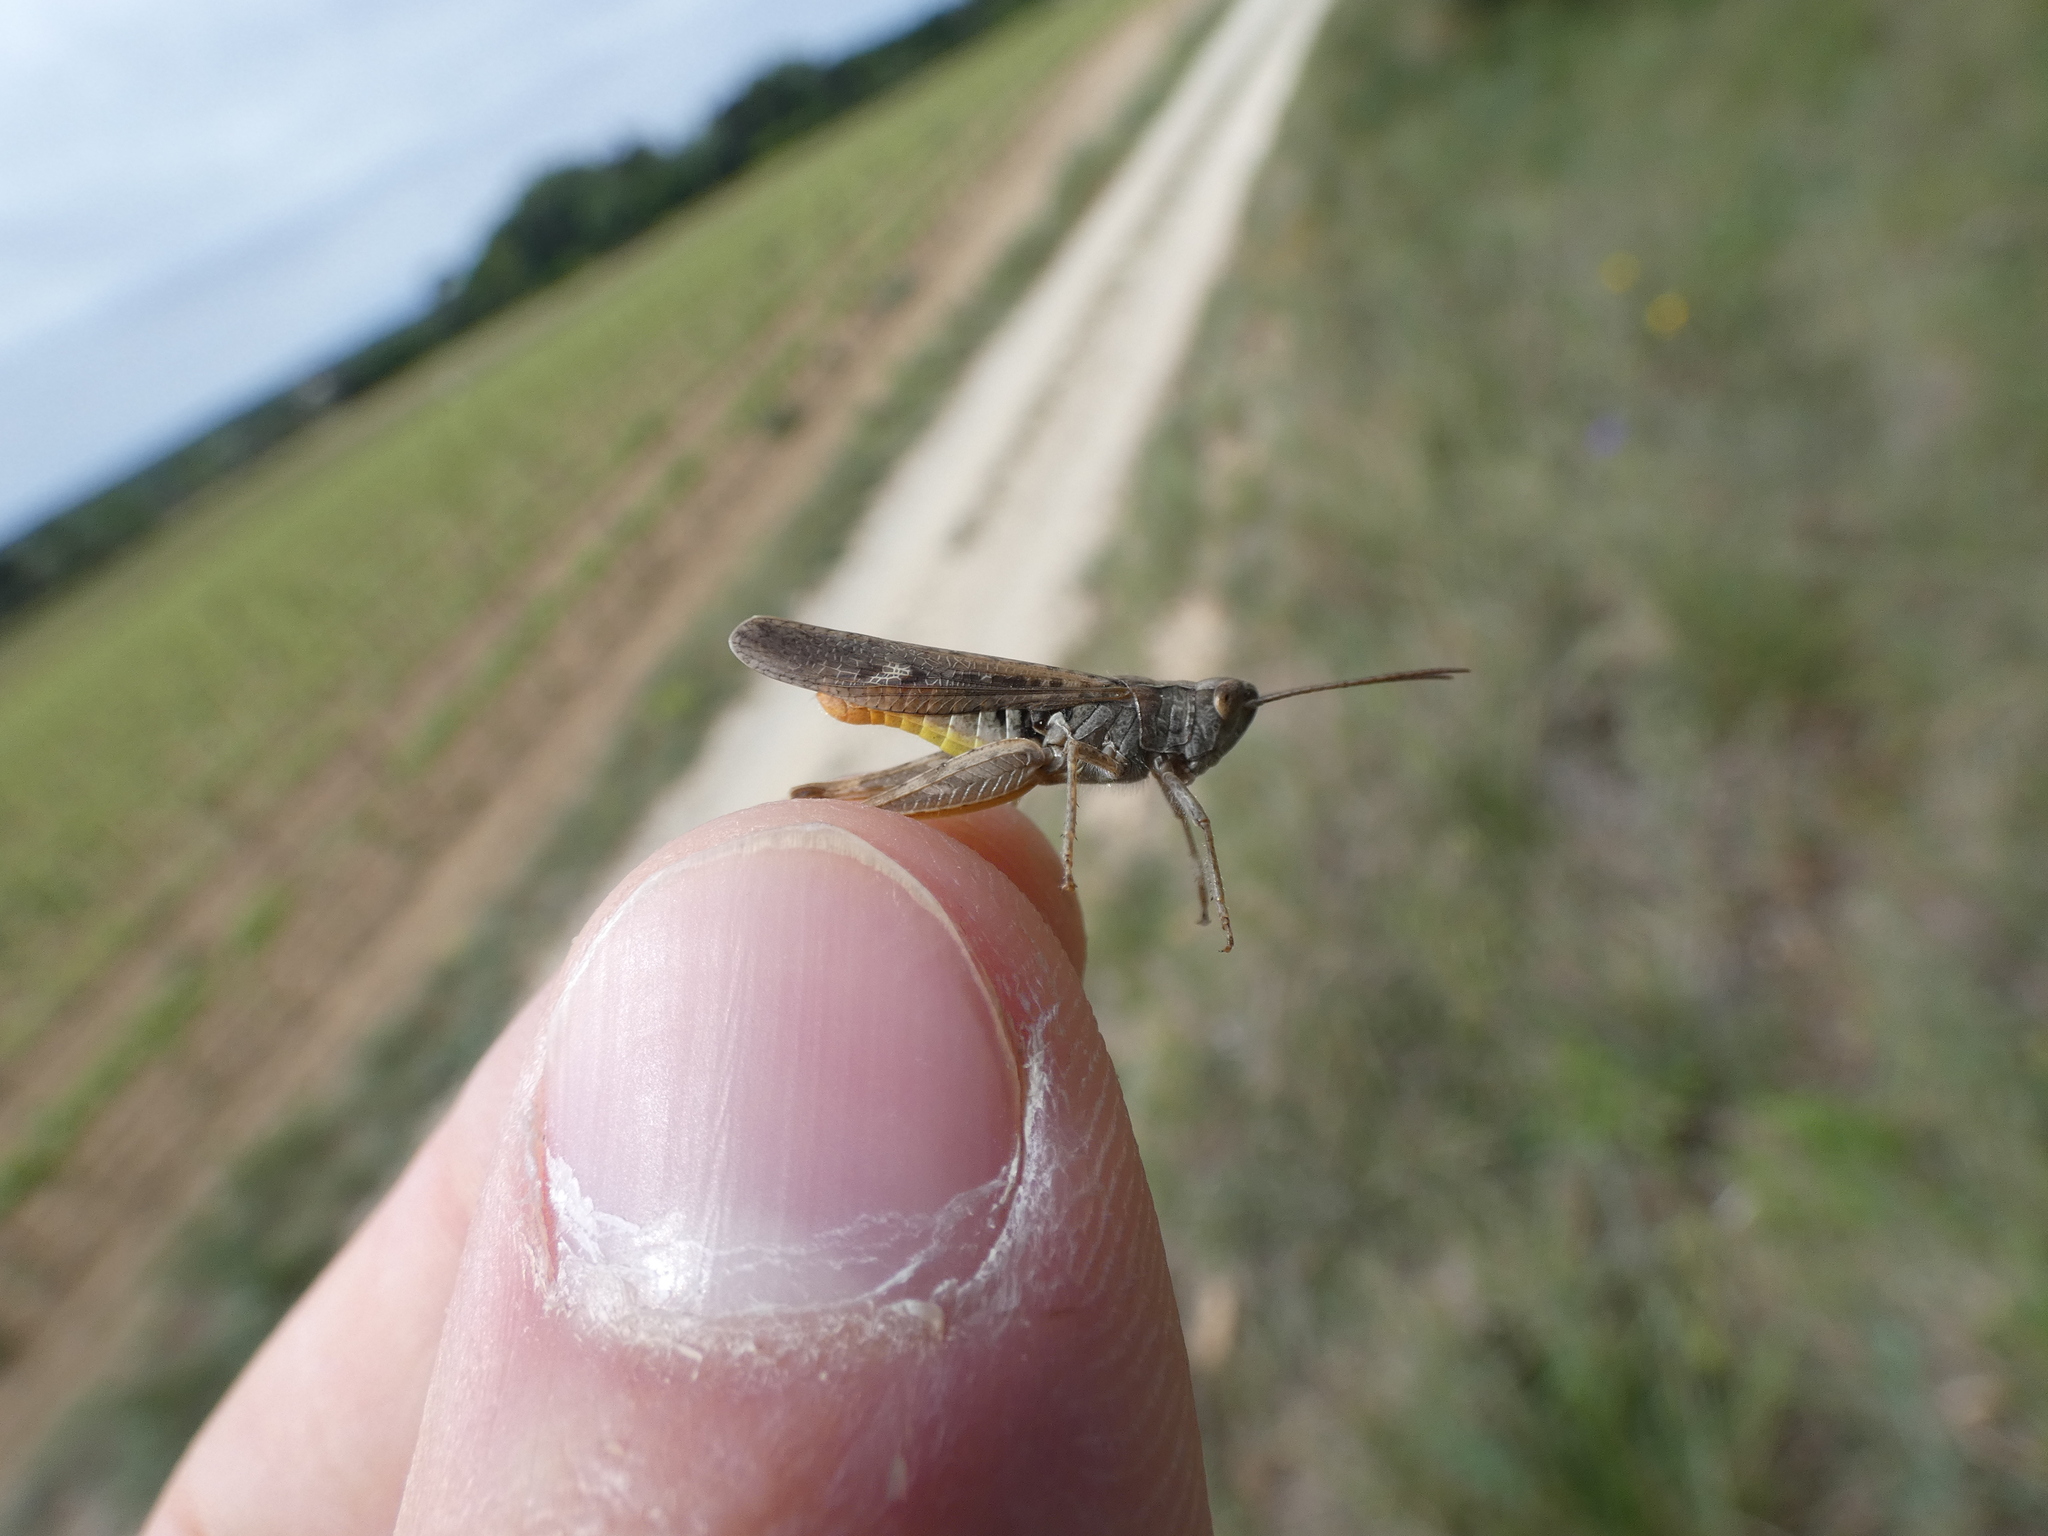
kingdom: Animalia
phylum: Arthropoda
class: Insecta
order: Orthoptera
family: Acrididae
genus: Chorthippus
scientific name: Chorthippus brunneus
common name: Field grasshopper
